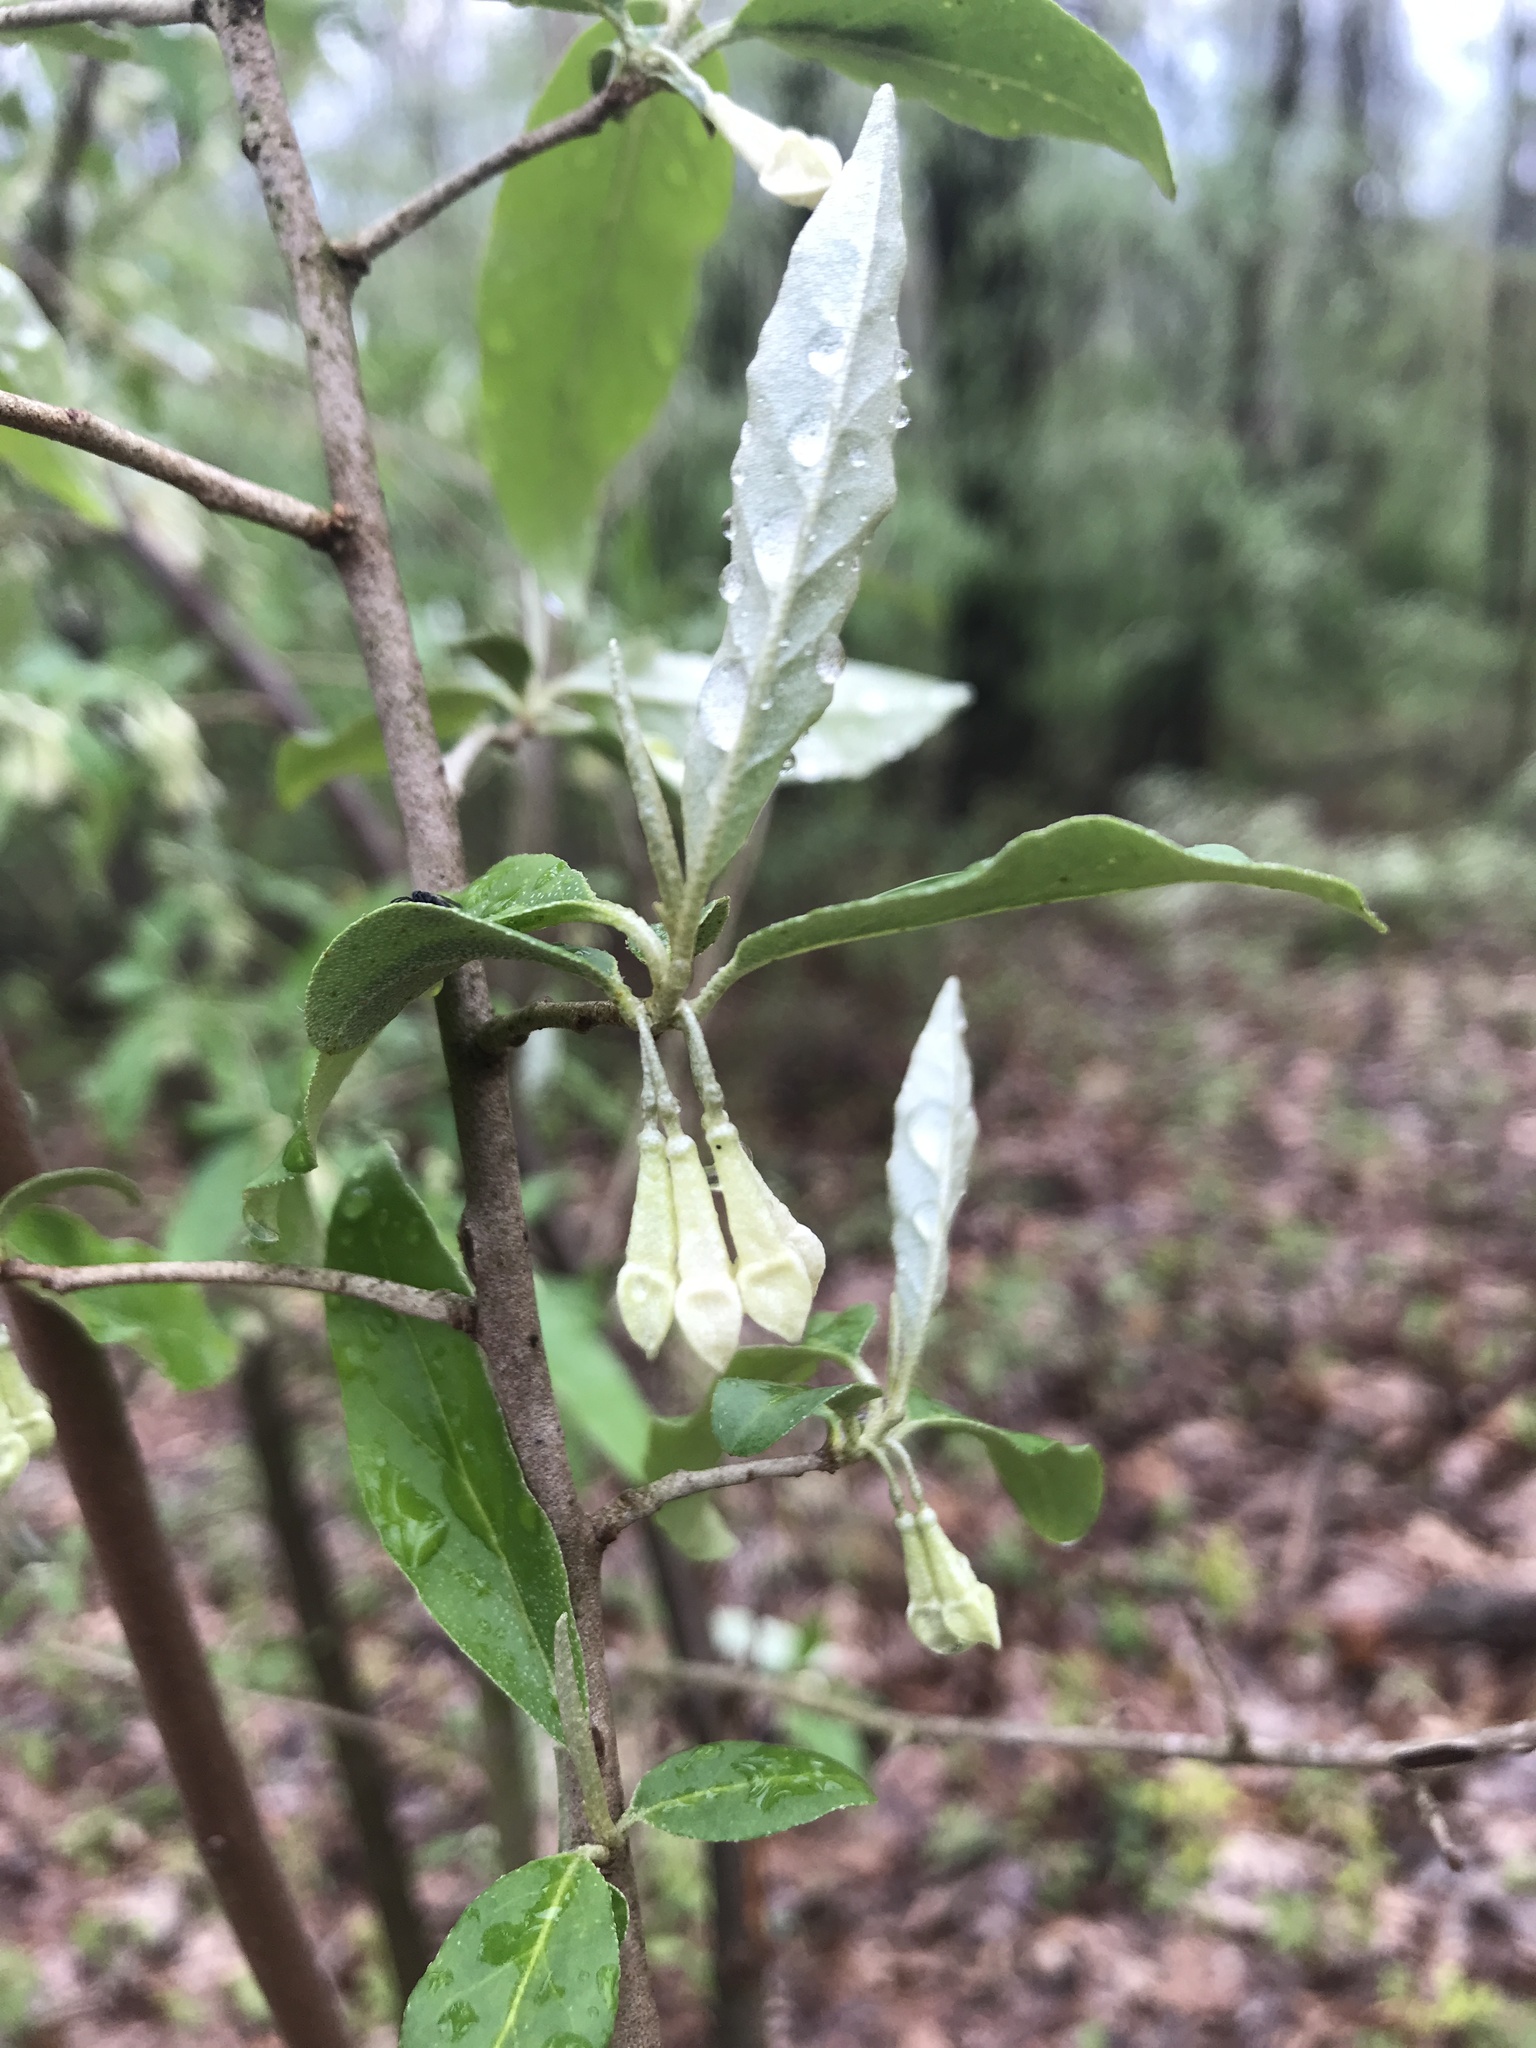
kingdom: Plantae
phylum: Tracheophyta
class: Magnoliopsida
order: Rosales
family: Elaeagnaceae
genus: Elaeagnus
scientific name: Elaeagnus umbellata
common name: Autumn olive
